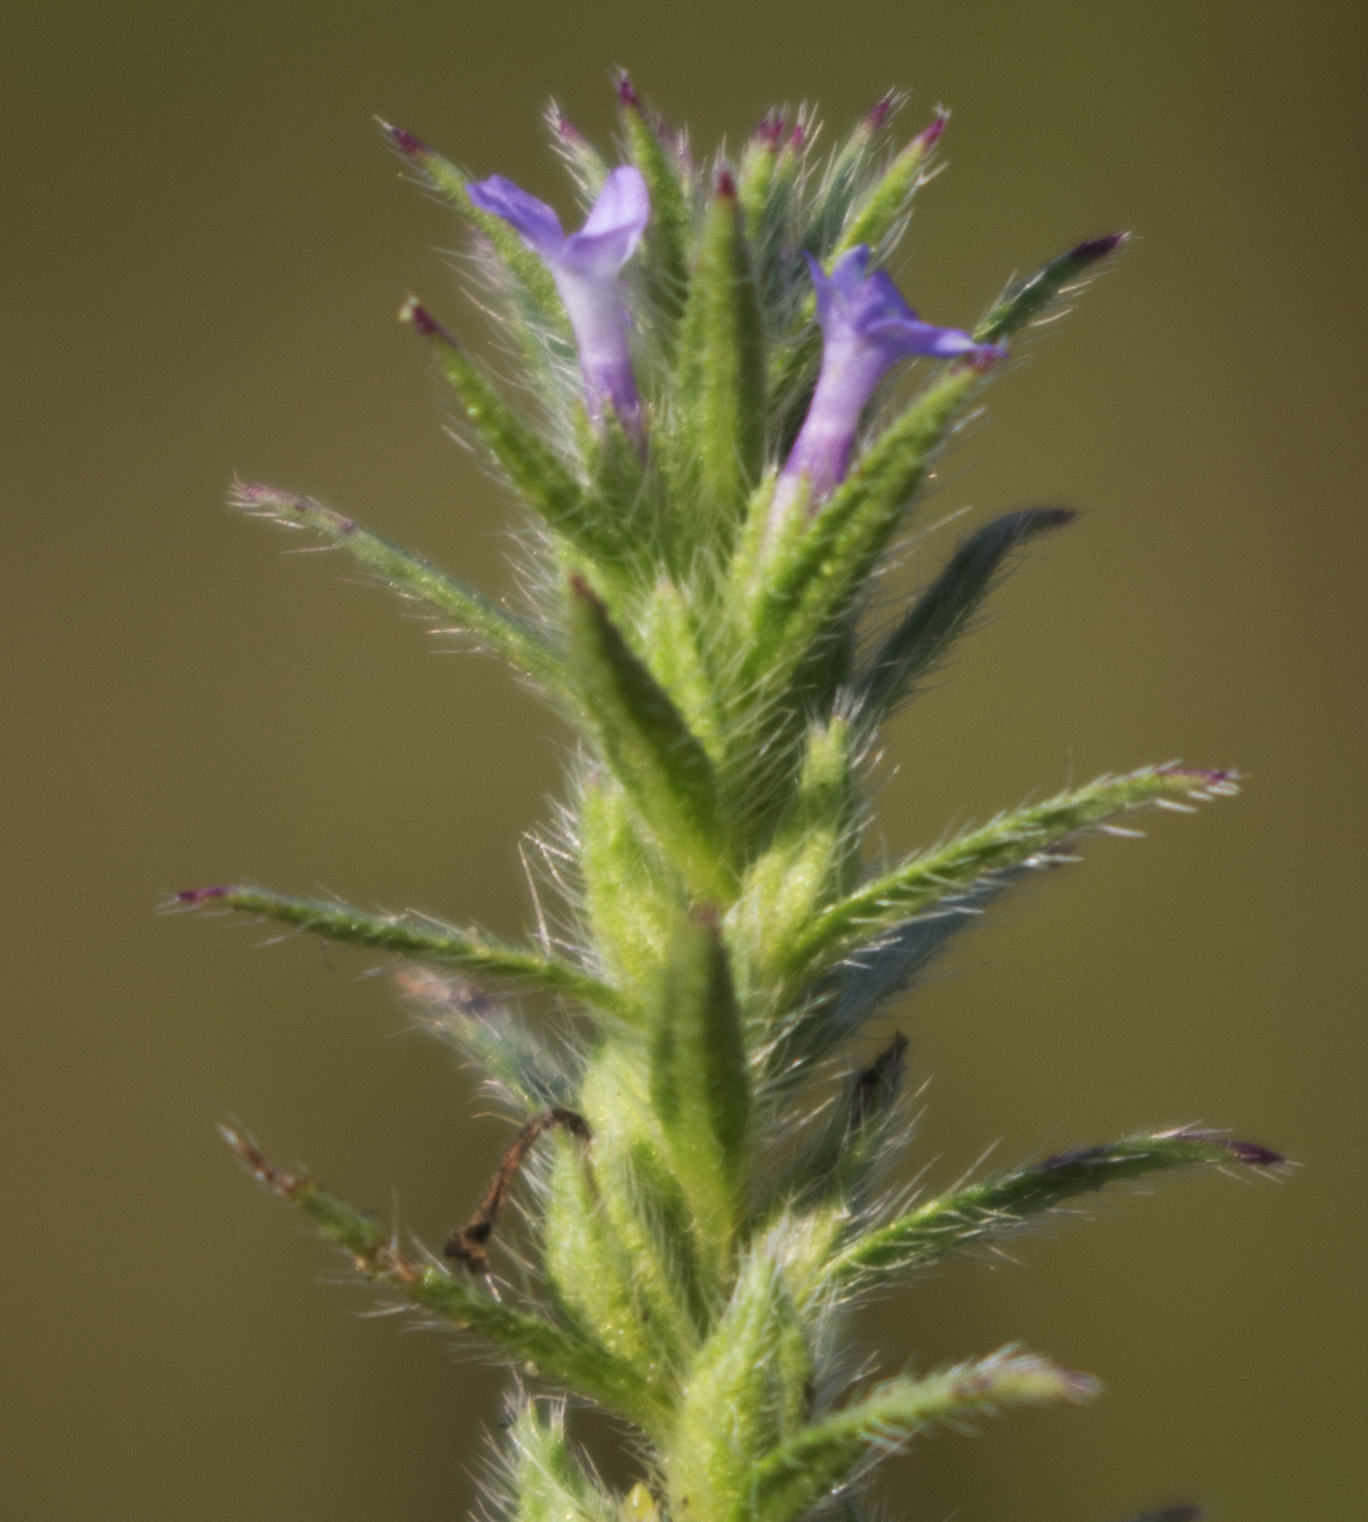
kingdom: Plantae
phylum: Tracheophyta
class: Magnoliopsida
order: Lamiales
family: Verbenaceae
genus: Verbena
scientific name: Verbena bracteata
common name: Bracted vervain
